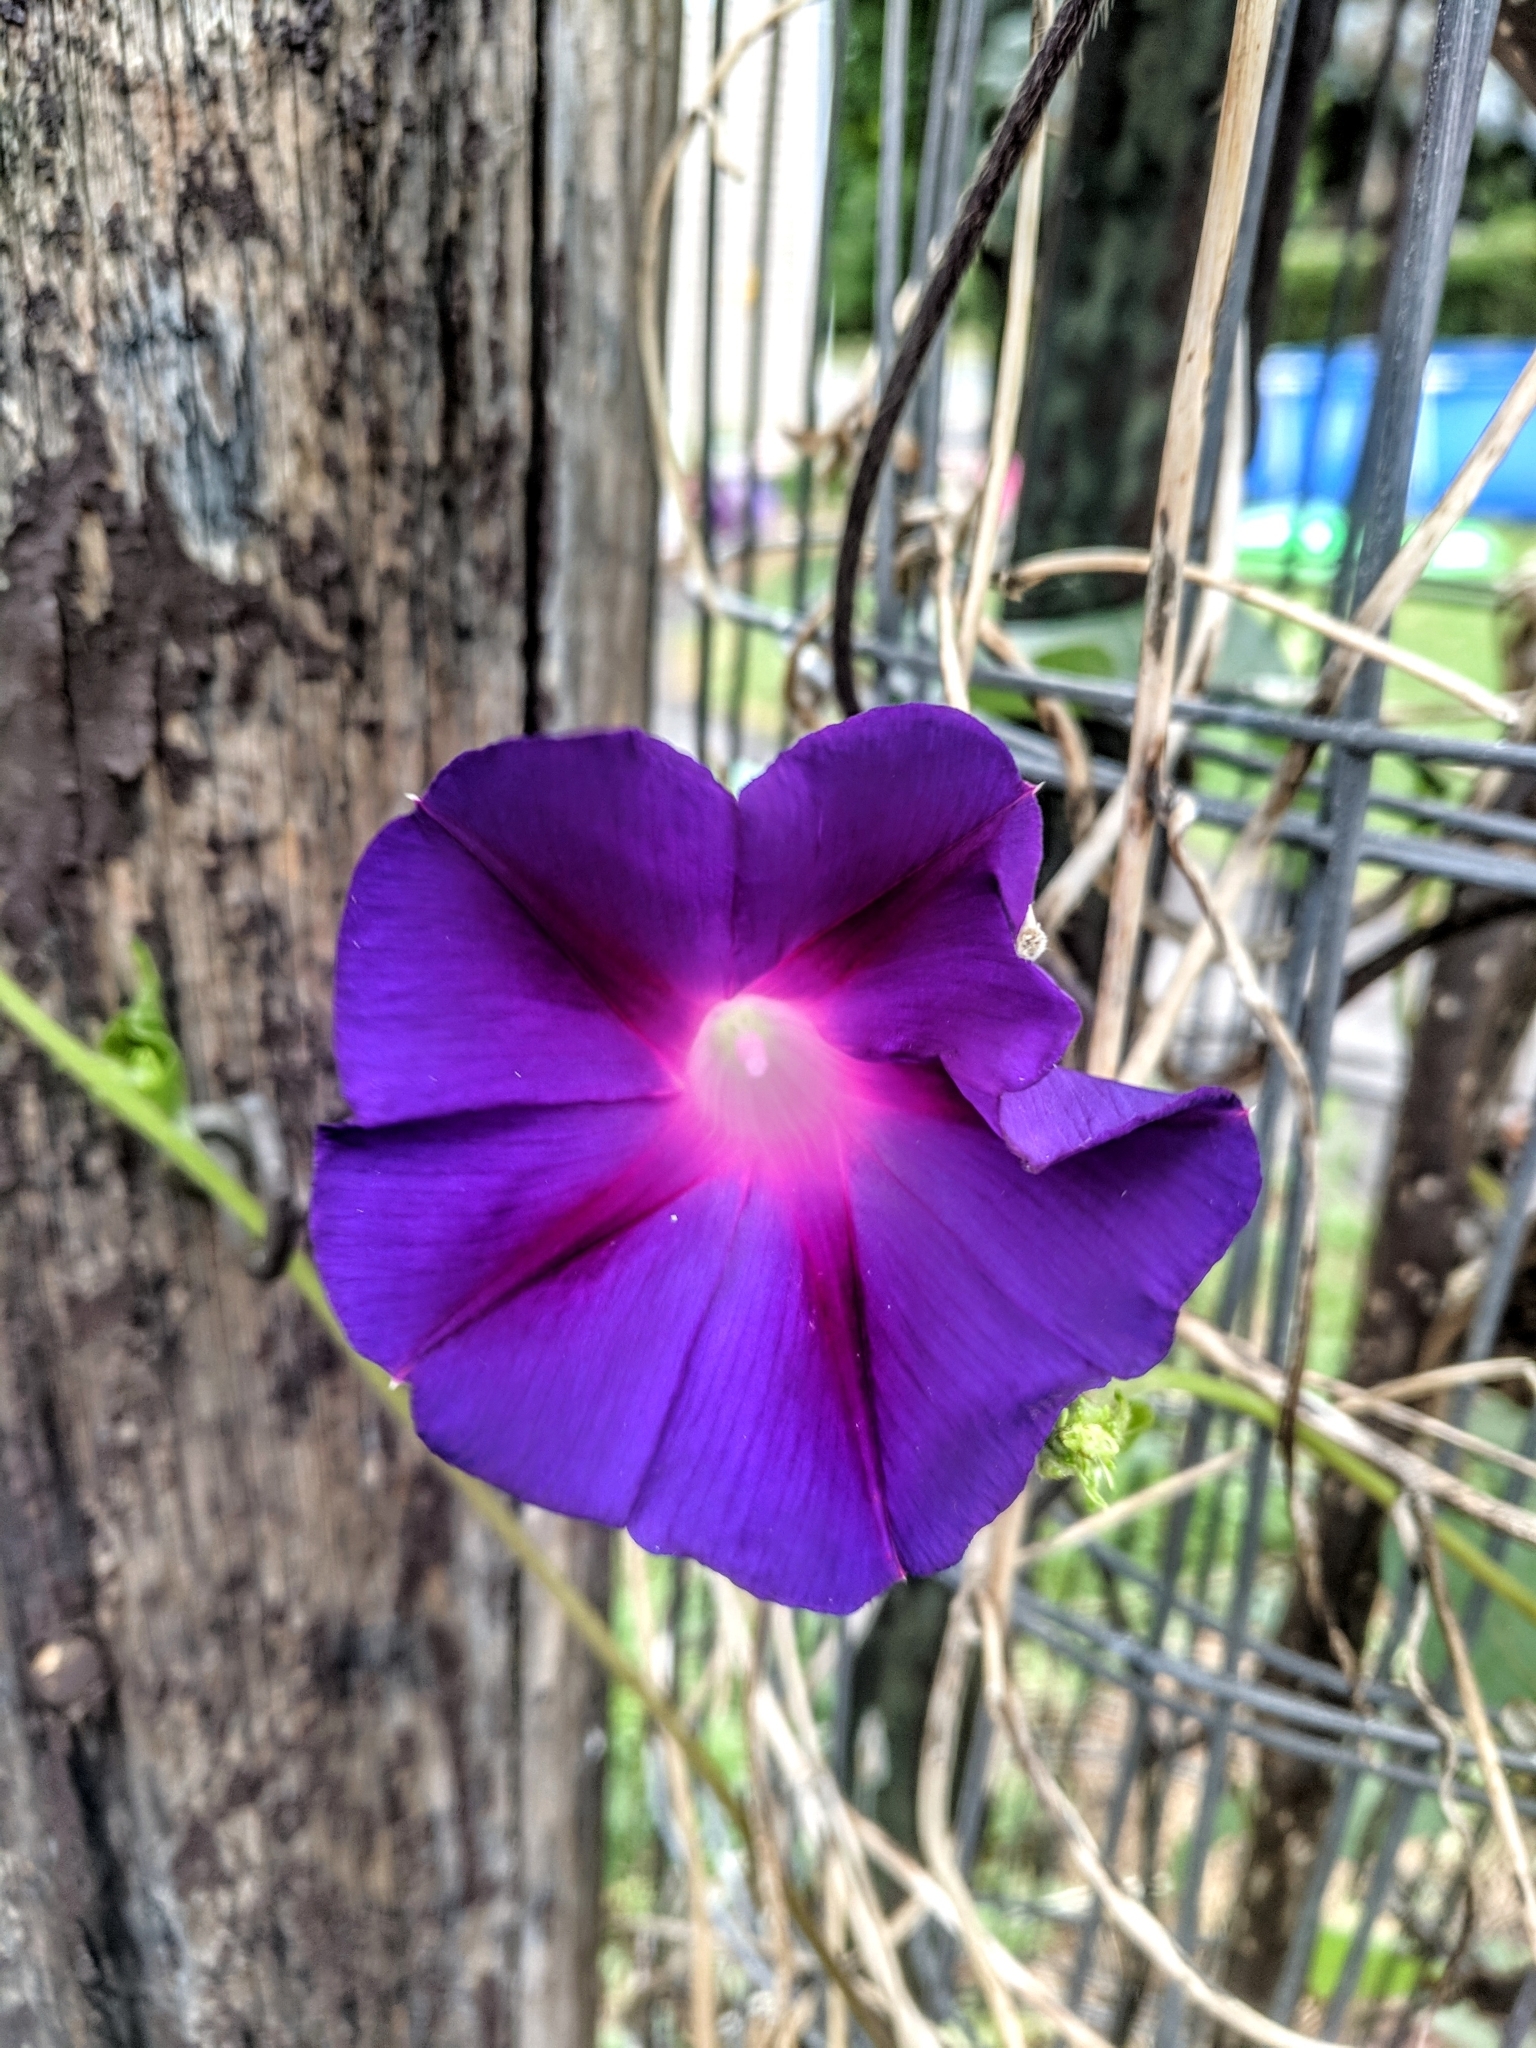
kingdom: Plantae
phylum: Tracheophyta
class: Magnoliopsida
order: Solanales
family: Convolvulaceae
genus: Ipomoea
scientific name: Ipomoea purpurea
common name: Common morning-glory
